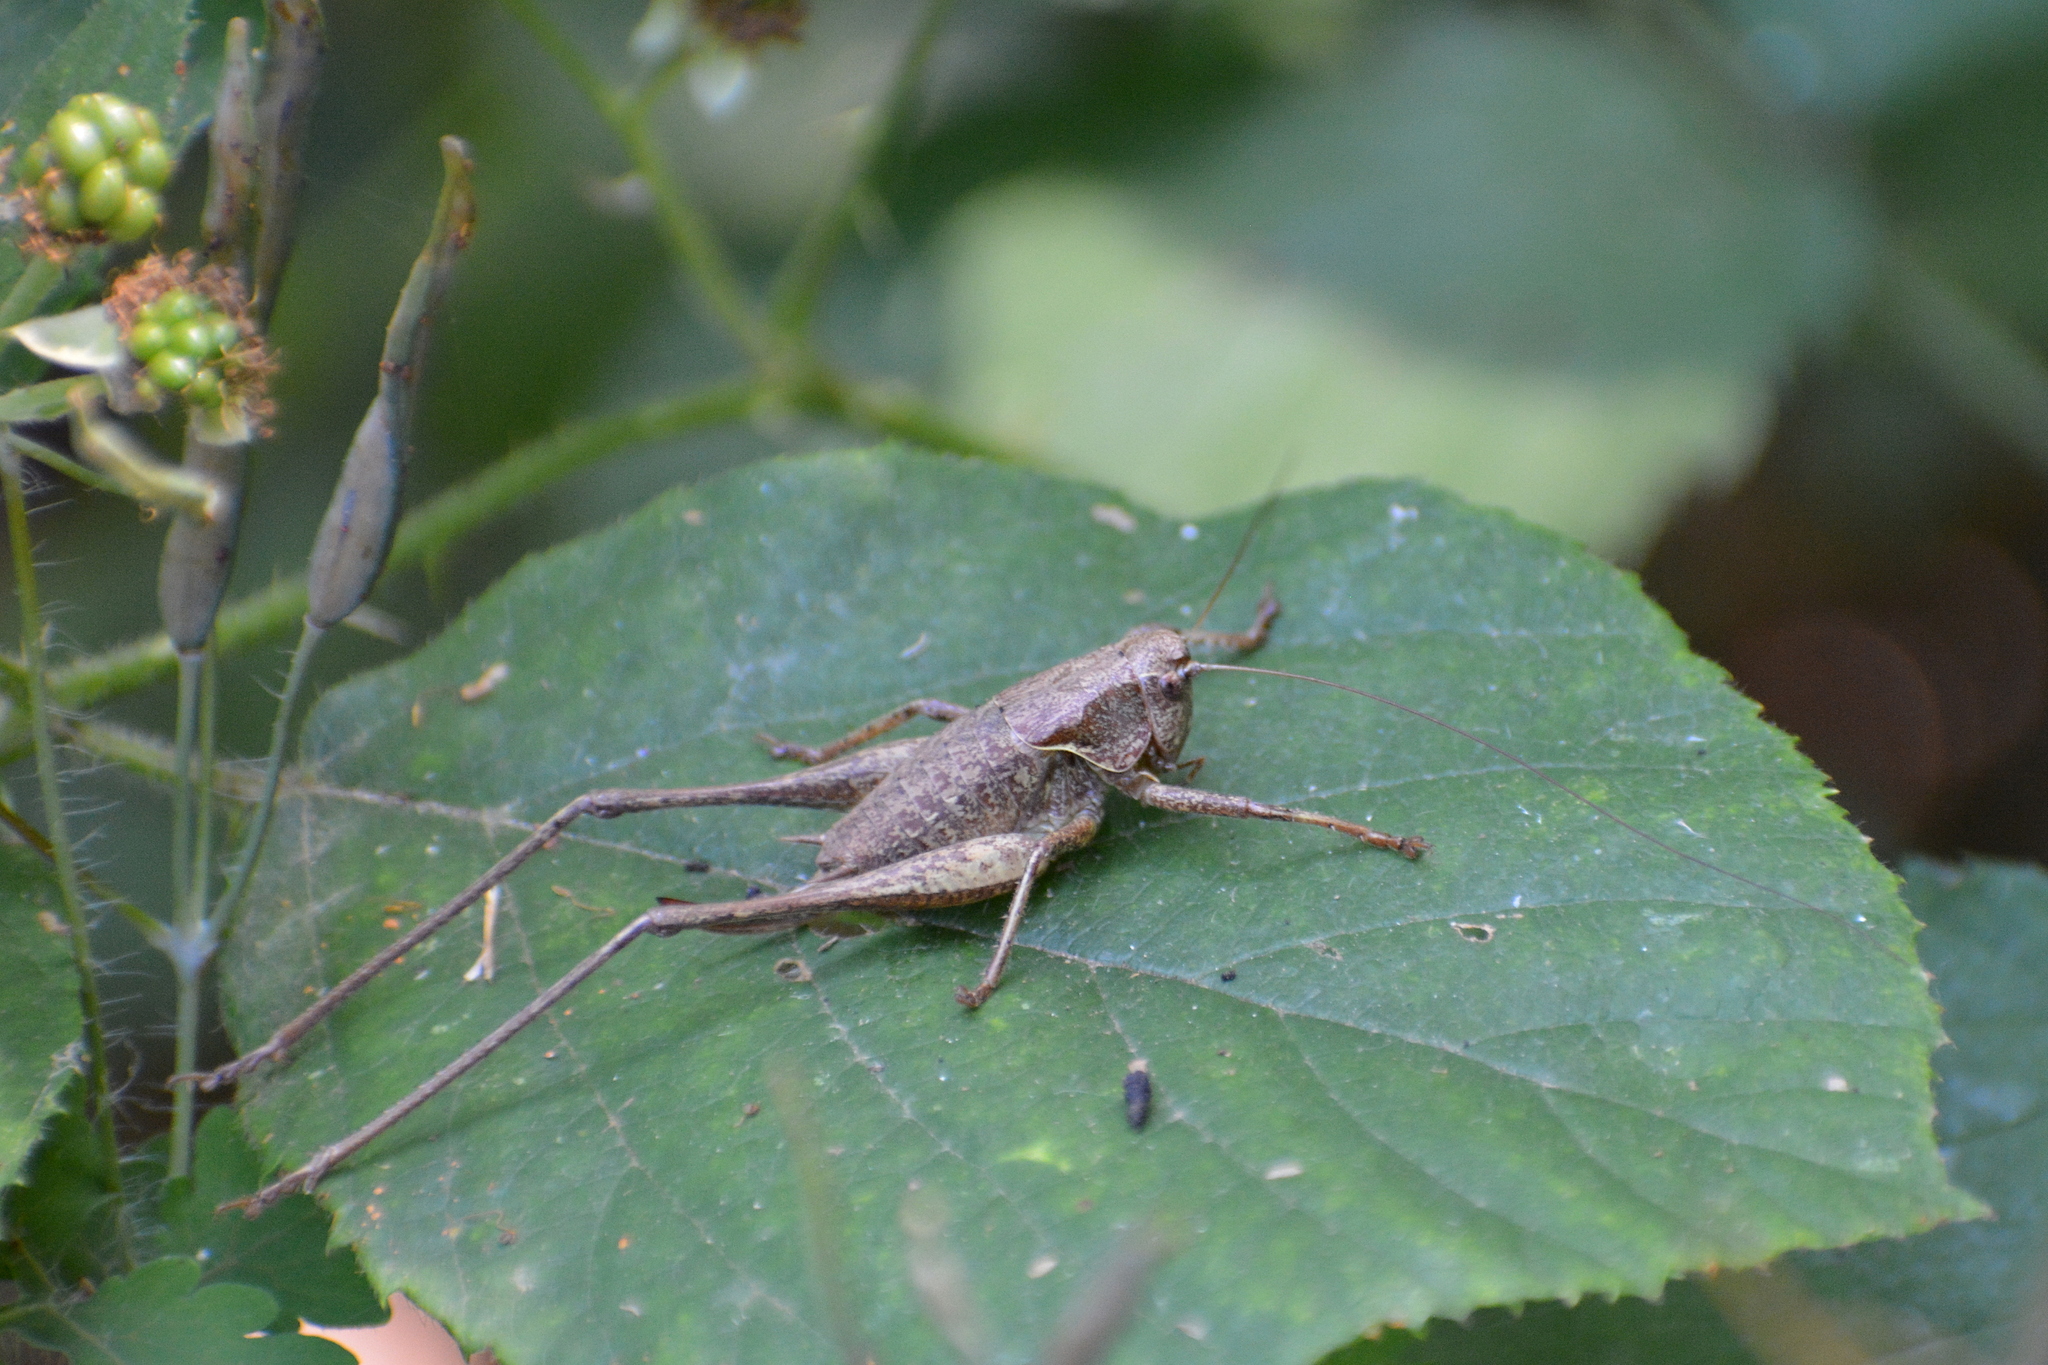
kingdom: Animalia
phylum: Arthropoda
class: Insecta
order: Orthoptera
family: Tettigoniidae
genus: Pholidoptera
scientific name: Pholidoptera griseoaptera
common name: Dark bush-cricket
